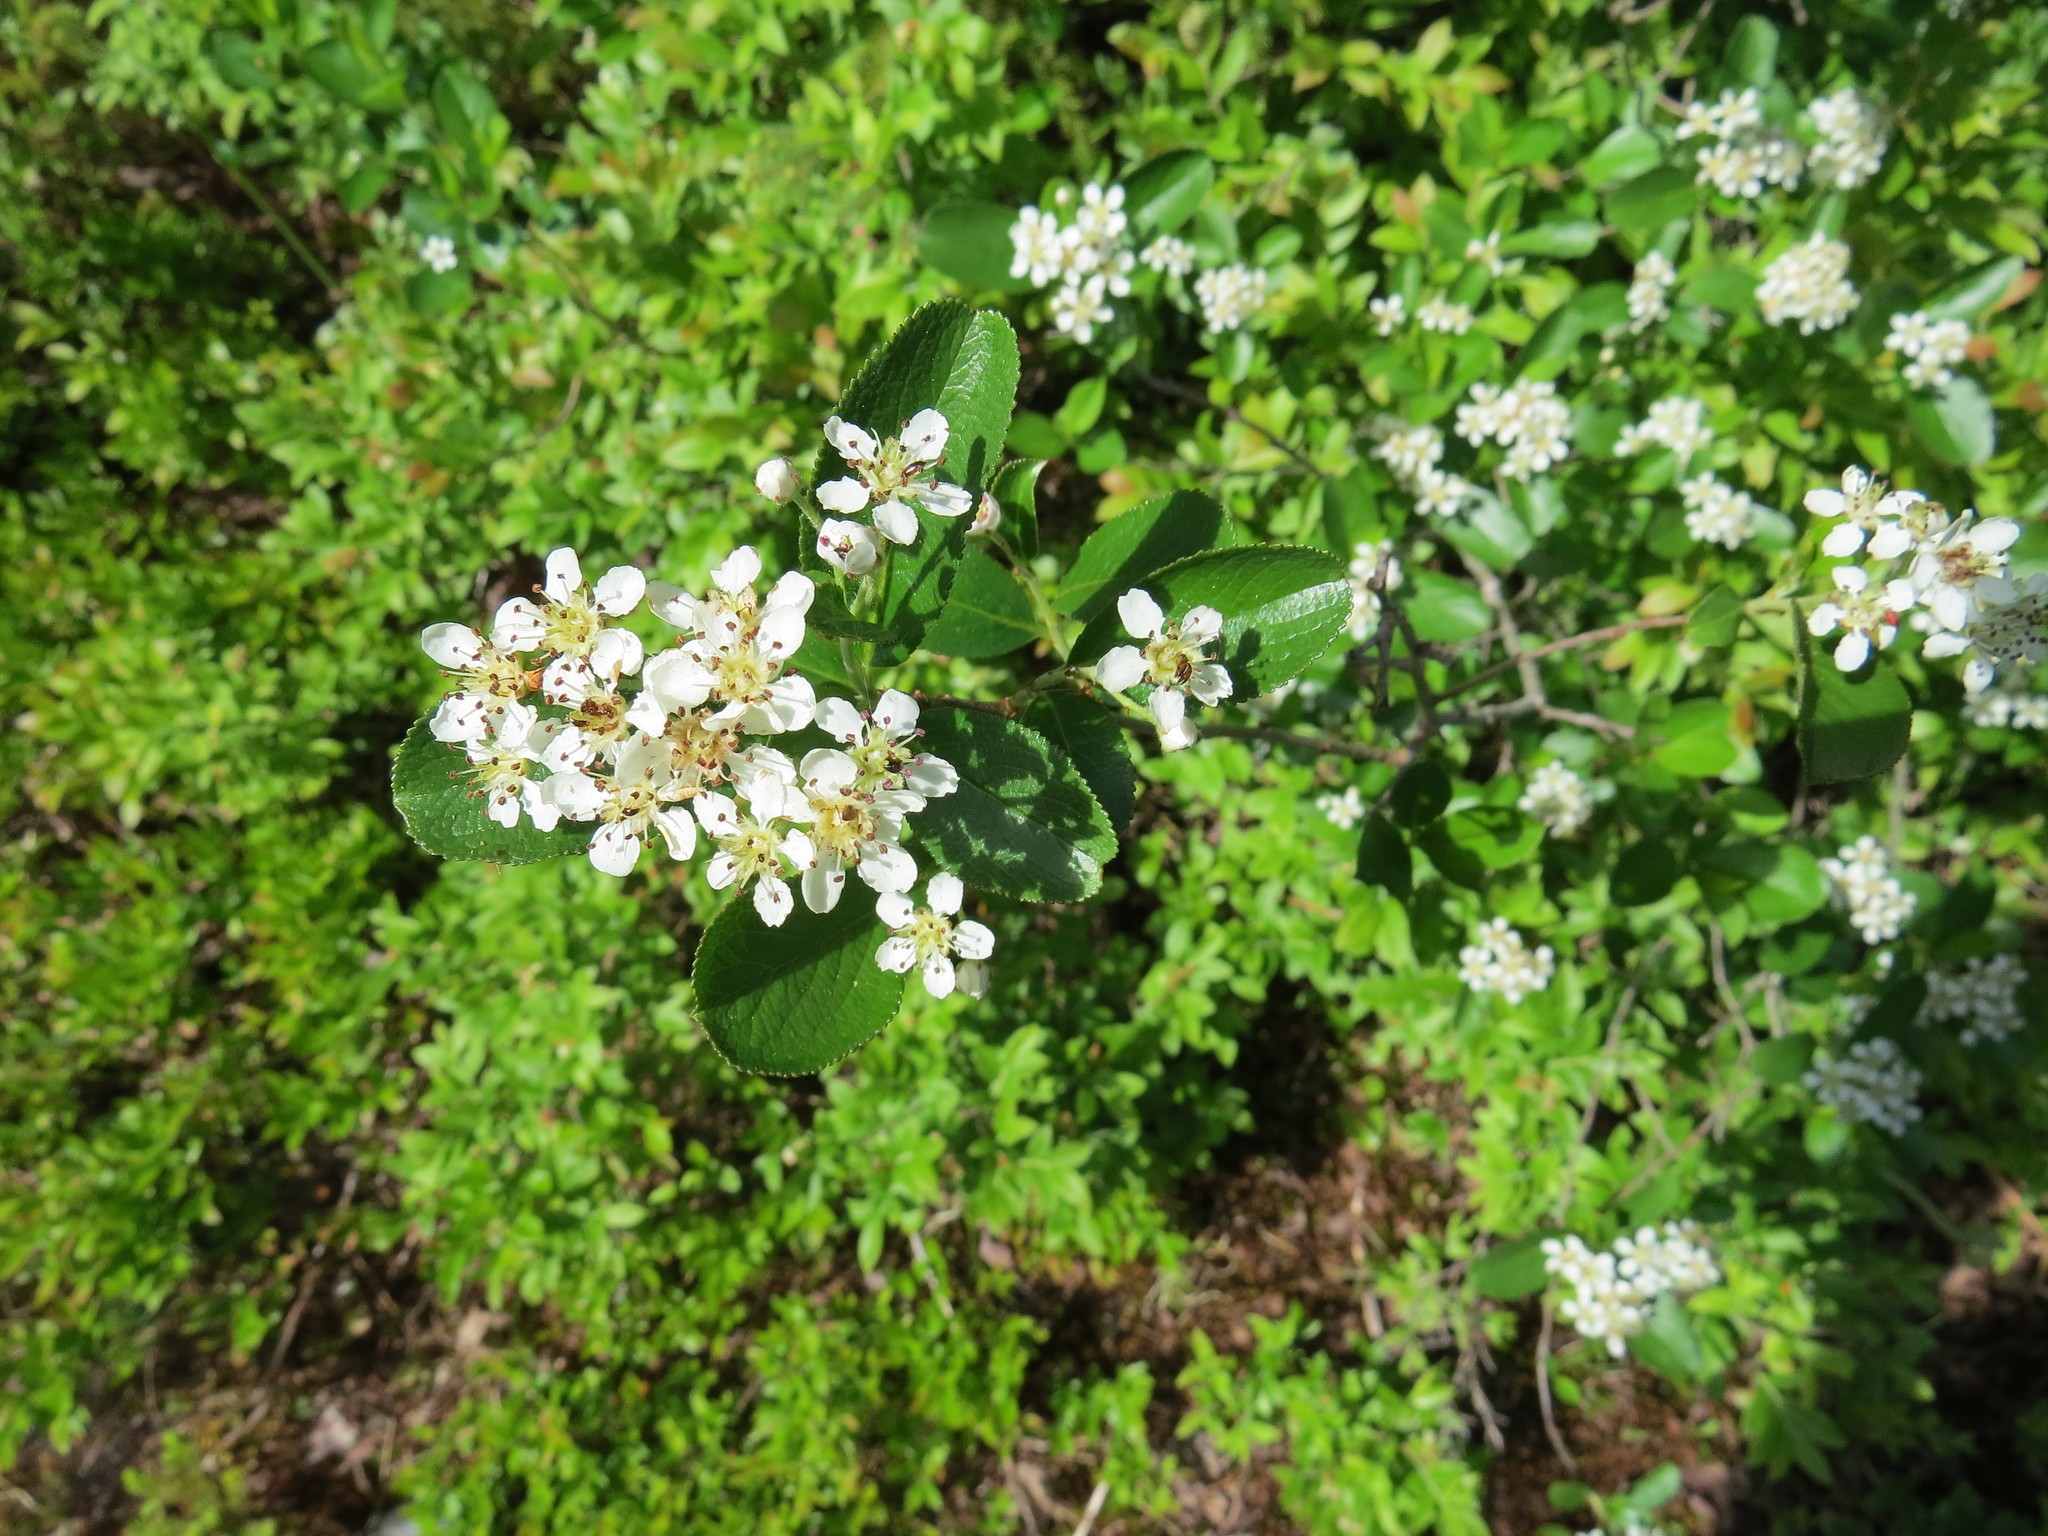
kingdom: Plantae
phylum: Tracheophyta
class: Magnoliopsida
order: Rosales
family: Rosaceae
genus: Aronia
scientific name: Aronia melanocarpa
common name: Black chokeberry
